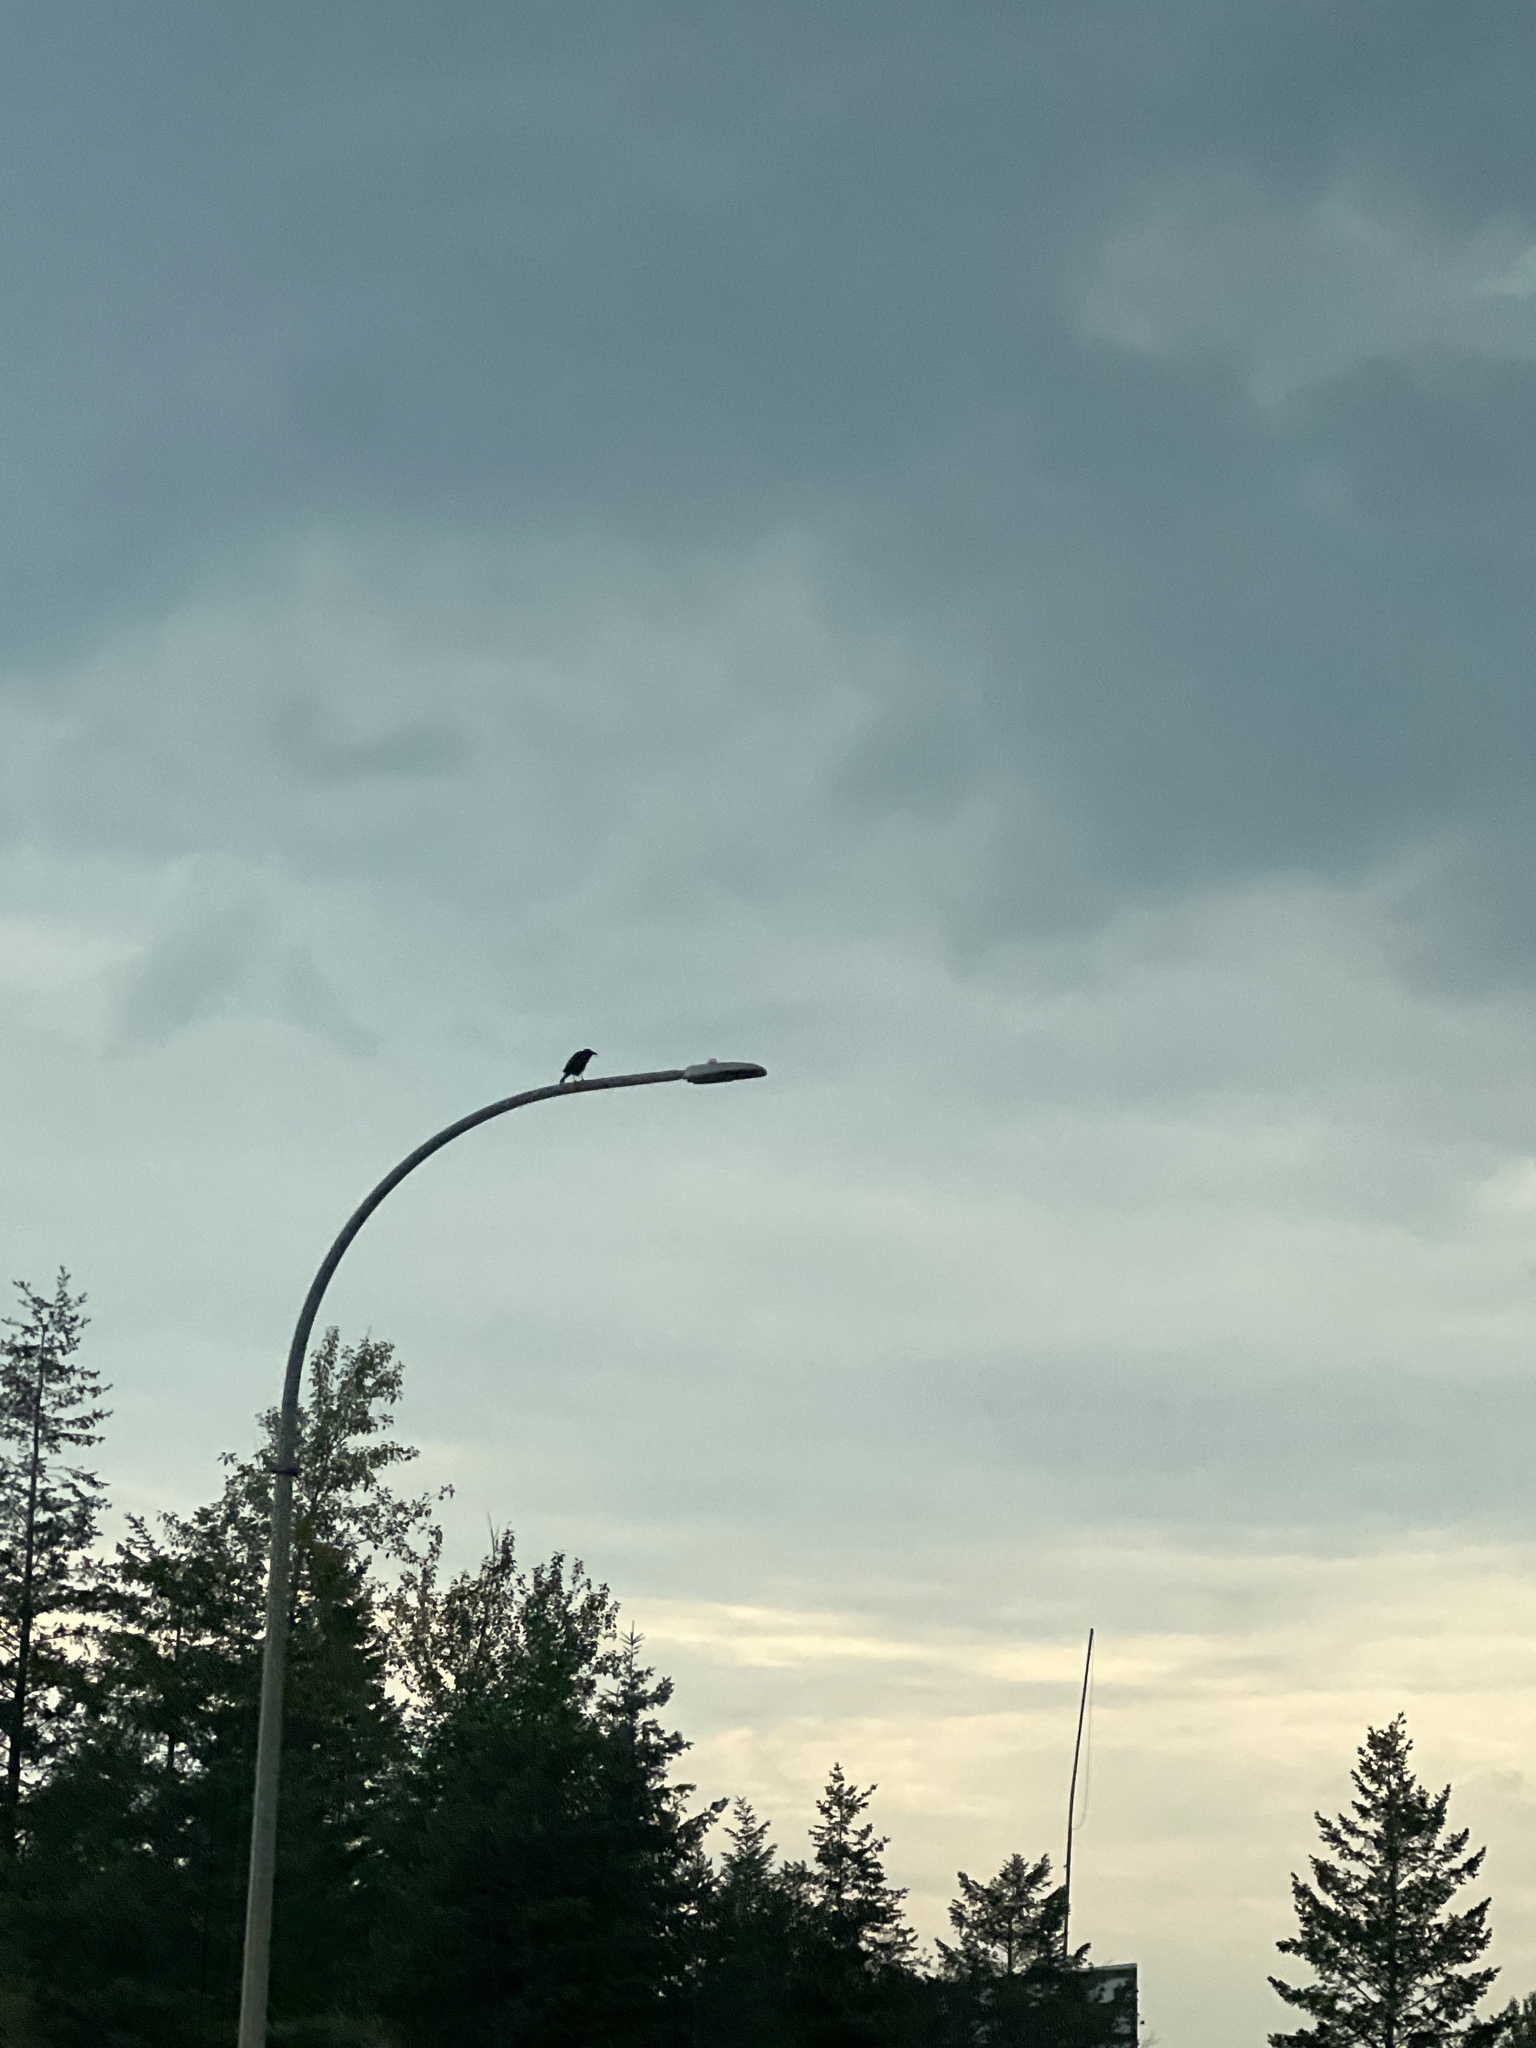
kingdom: Animalia
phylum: Chordata
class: Aves
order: Passeriformes
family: Corvidae
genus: Corvus
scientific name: Corvus brachyrhynchos
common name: American crow
